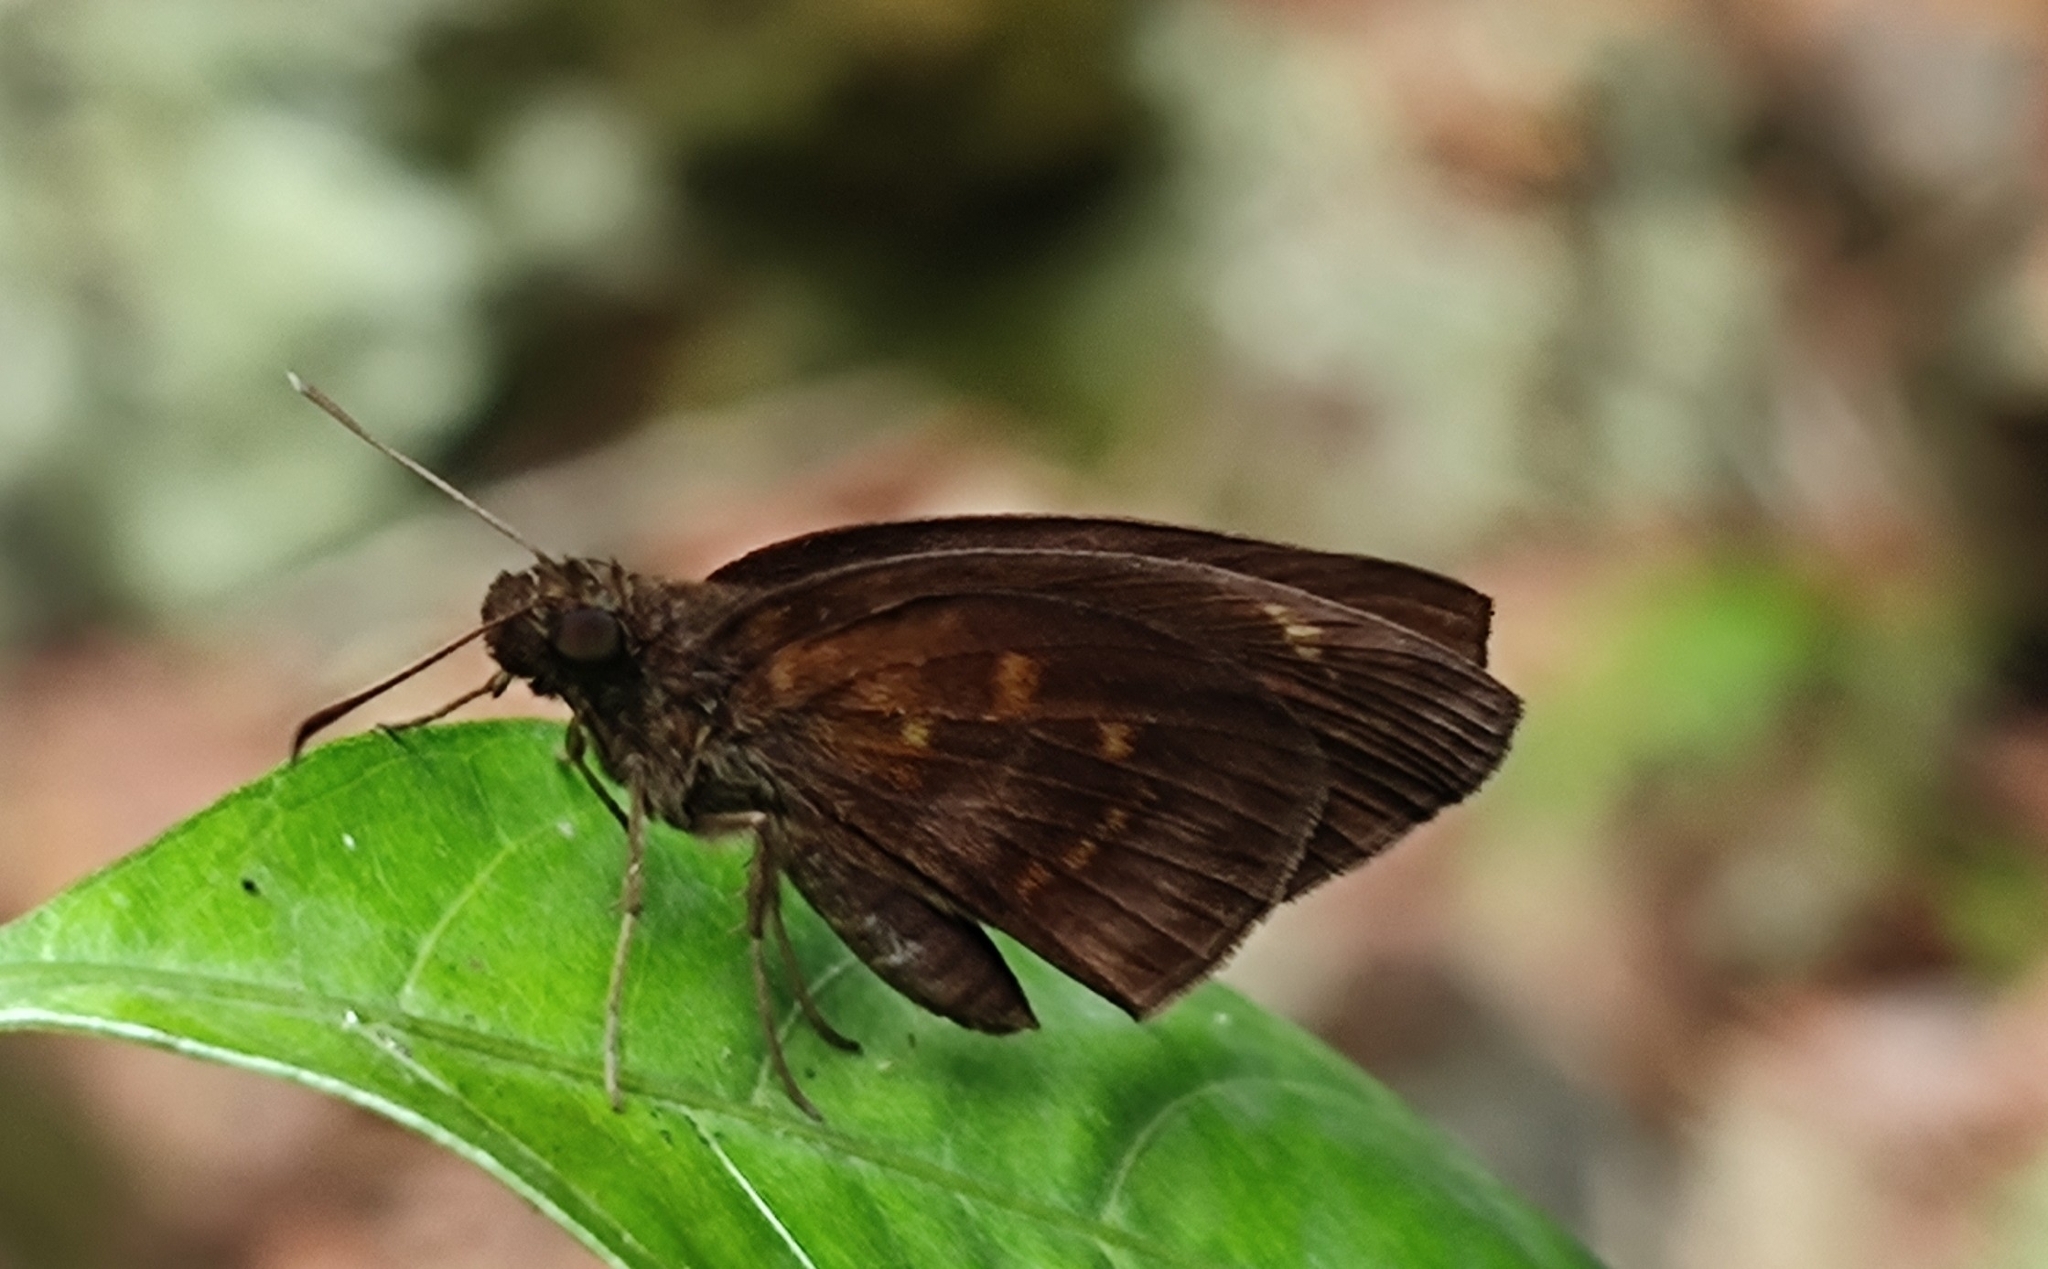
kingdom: Animalia
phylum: Arthropoda
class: Insecta
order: Lepidoptera
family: Hesperiidae
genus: Psolos
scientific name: Psolos fuligo
